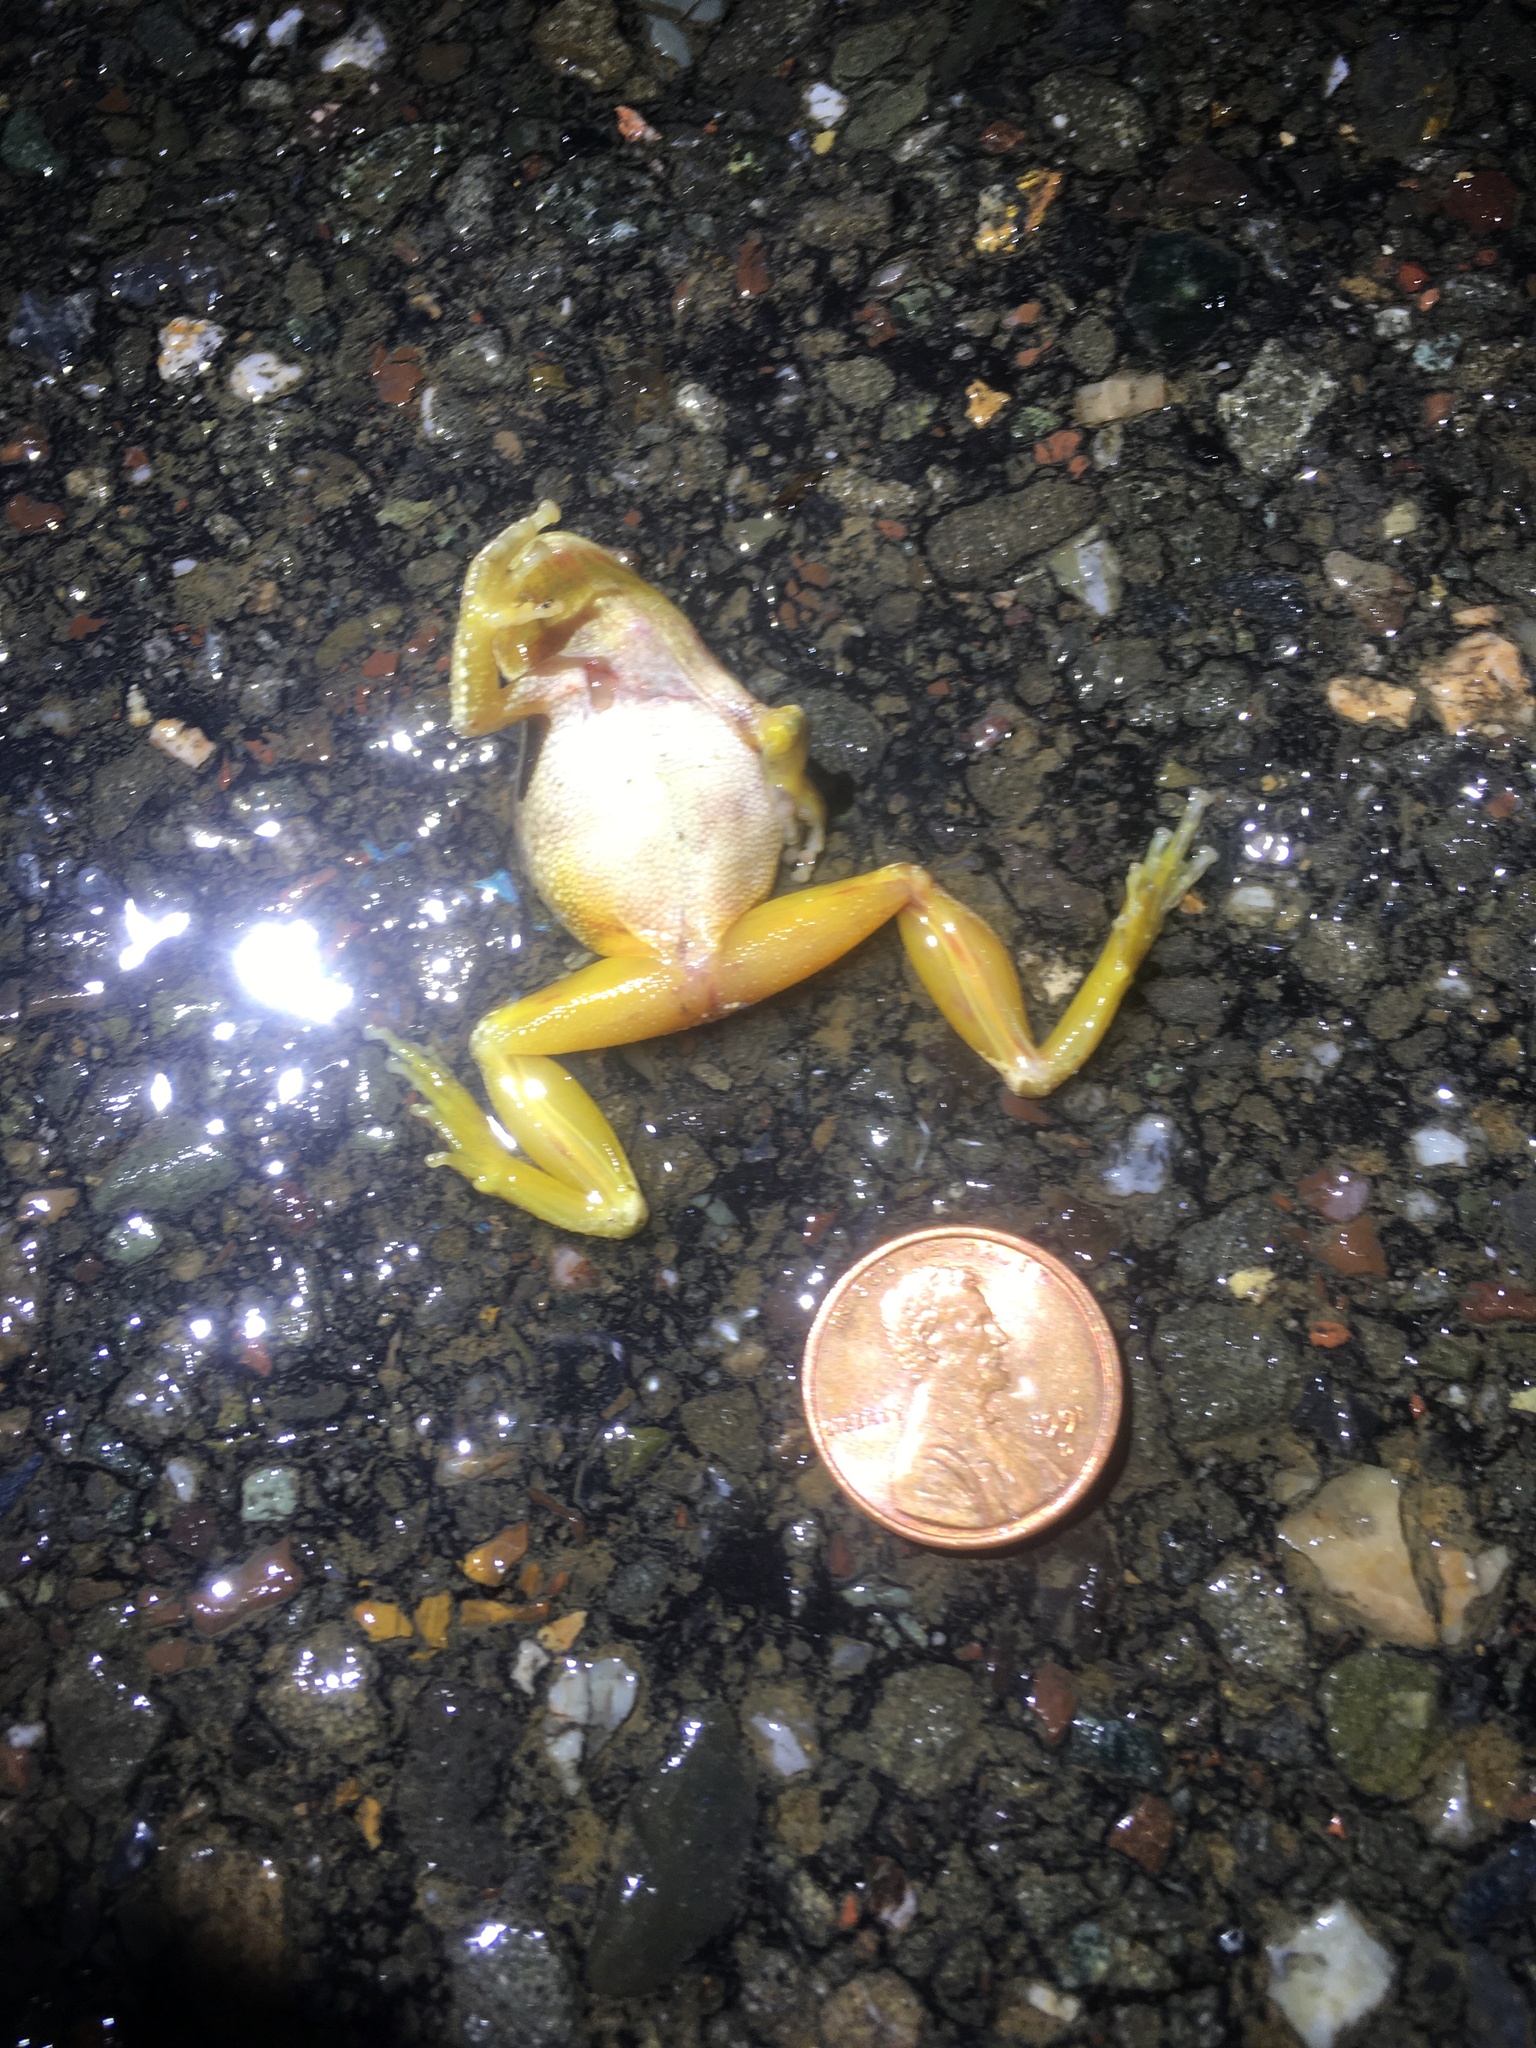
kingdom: Animalia
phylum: Chordata
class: Amphibia
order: Anura
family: Hylidae
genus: Pseudacris
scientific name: Pseudacris regilla
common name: Pacific chorus frog
